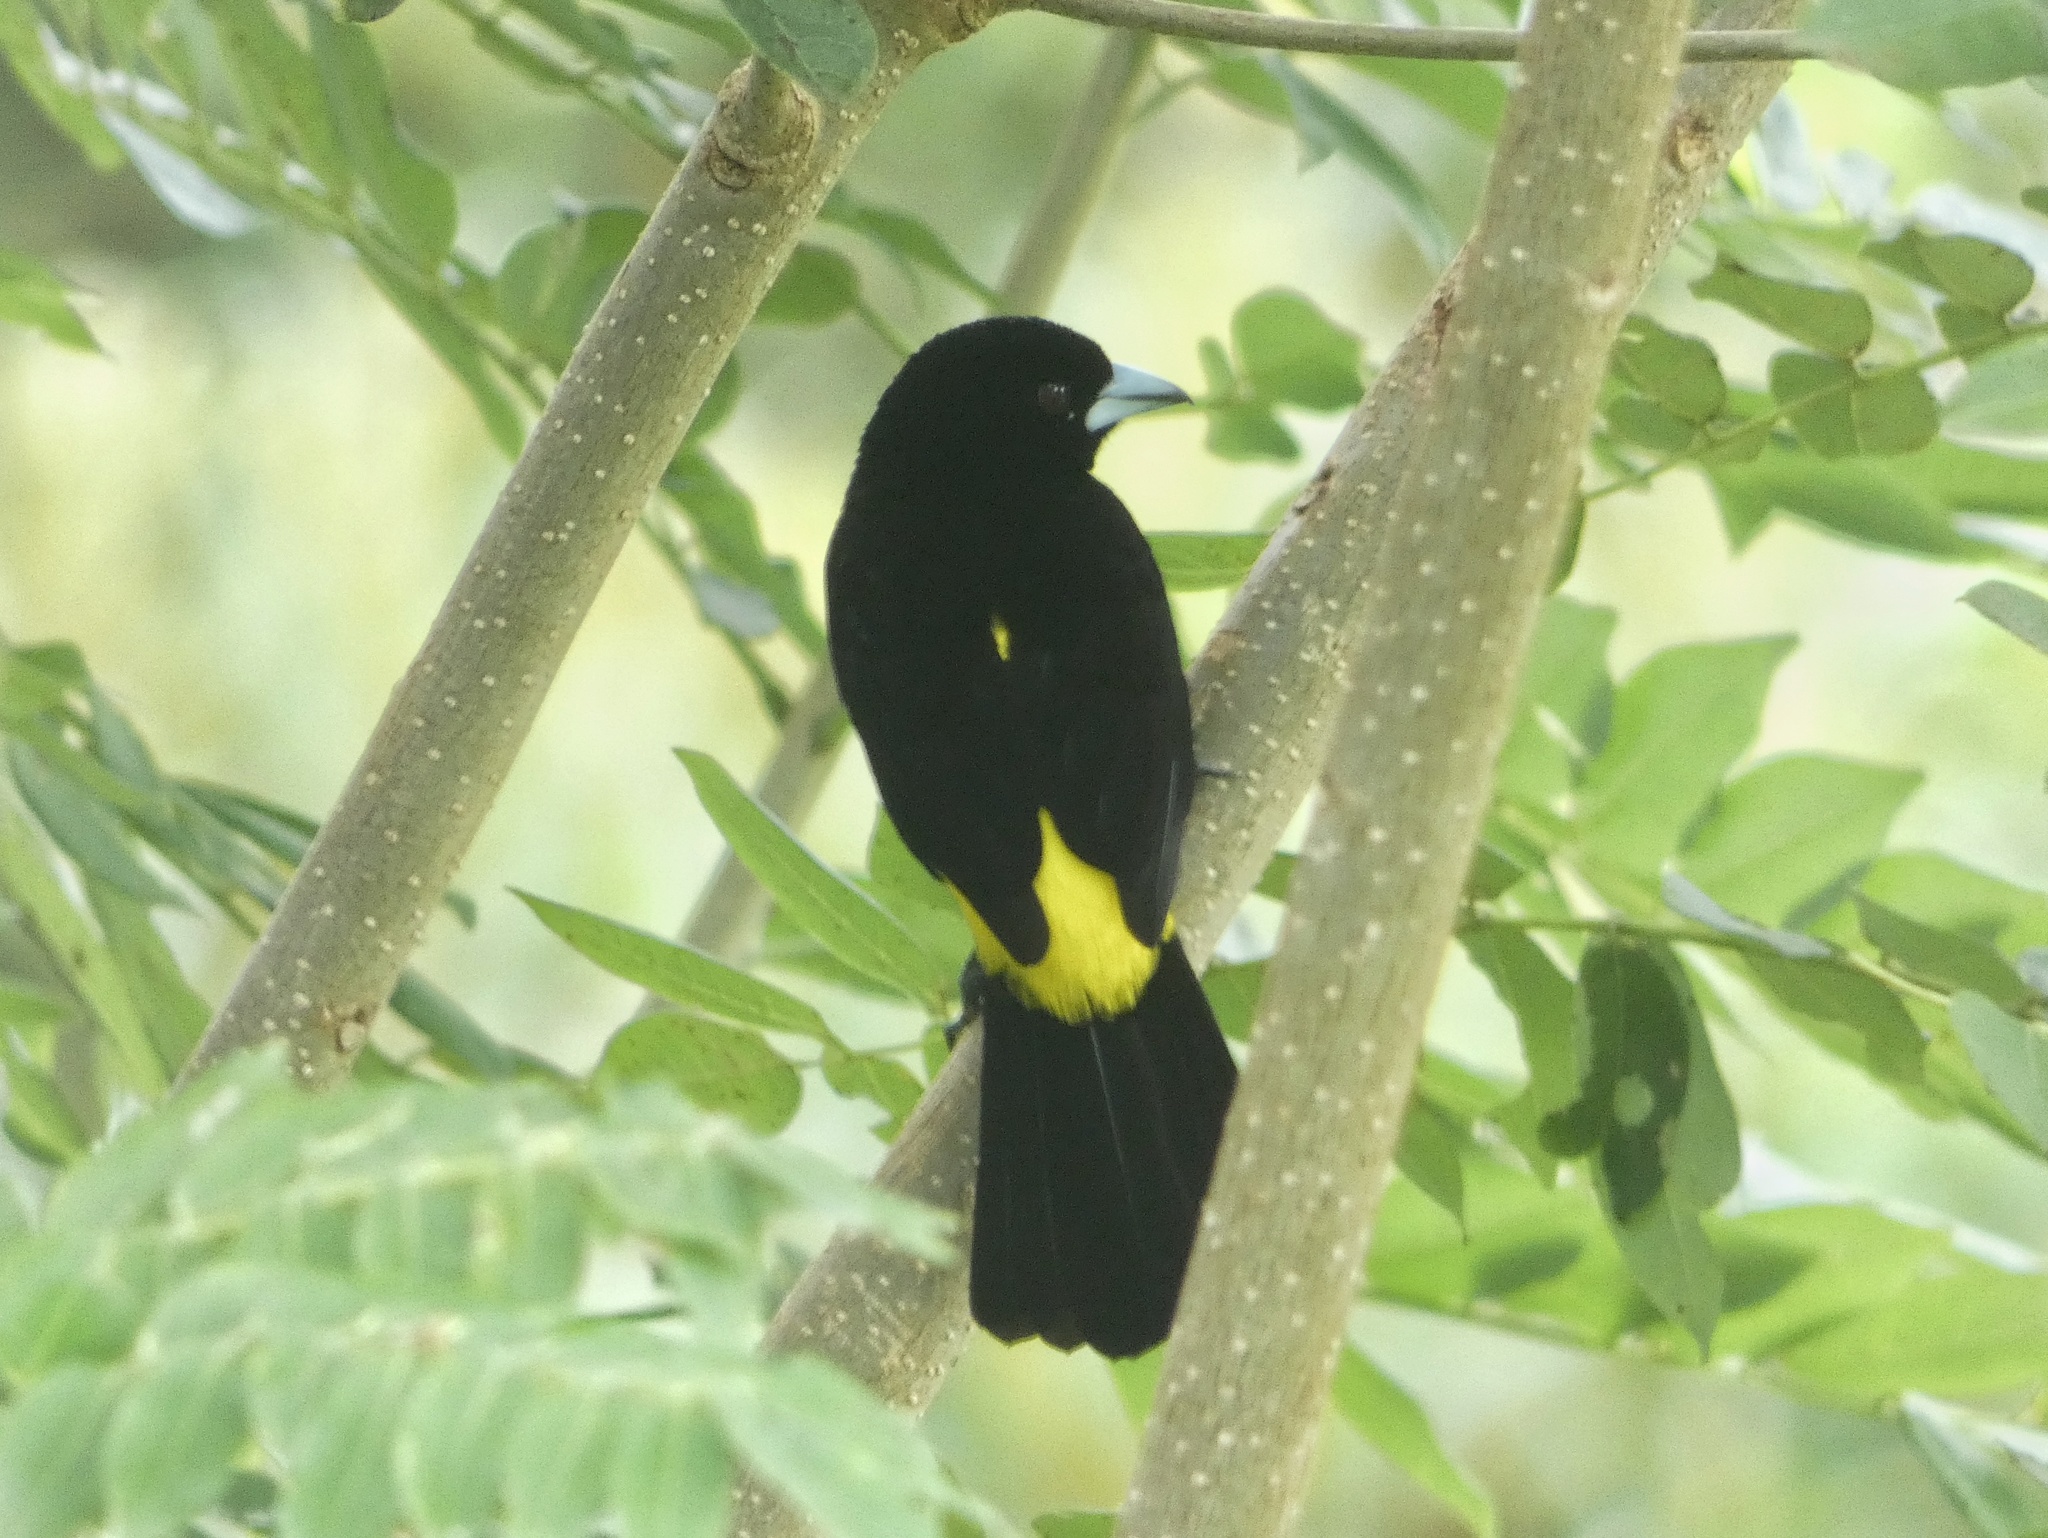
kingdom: Animalia
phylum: Chordata
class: Aves
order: Passeriformes
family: Thraupidae
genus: Ramphocelus
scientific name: Ramphocelus icteronotus
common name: Lemon-rumped tanager
